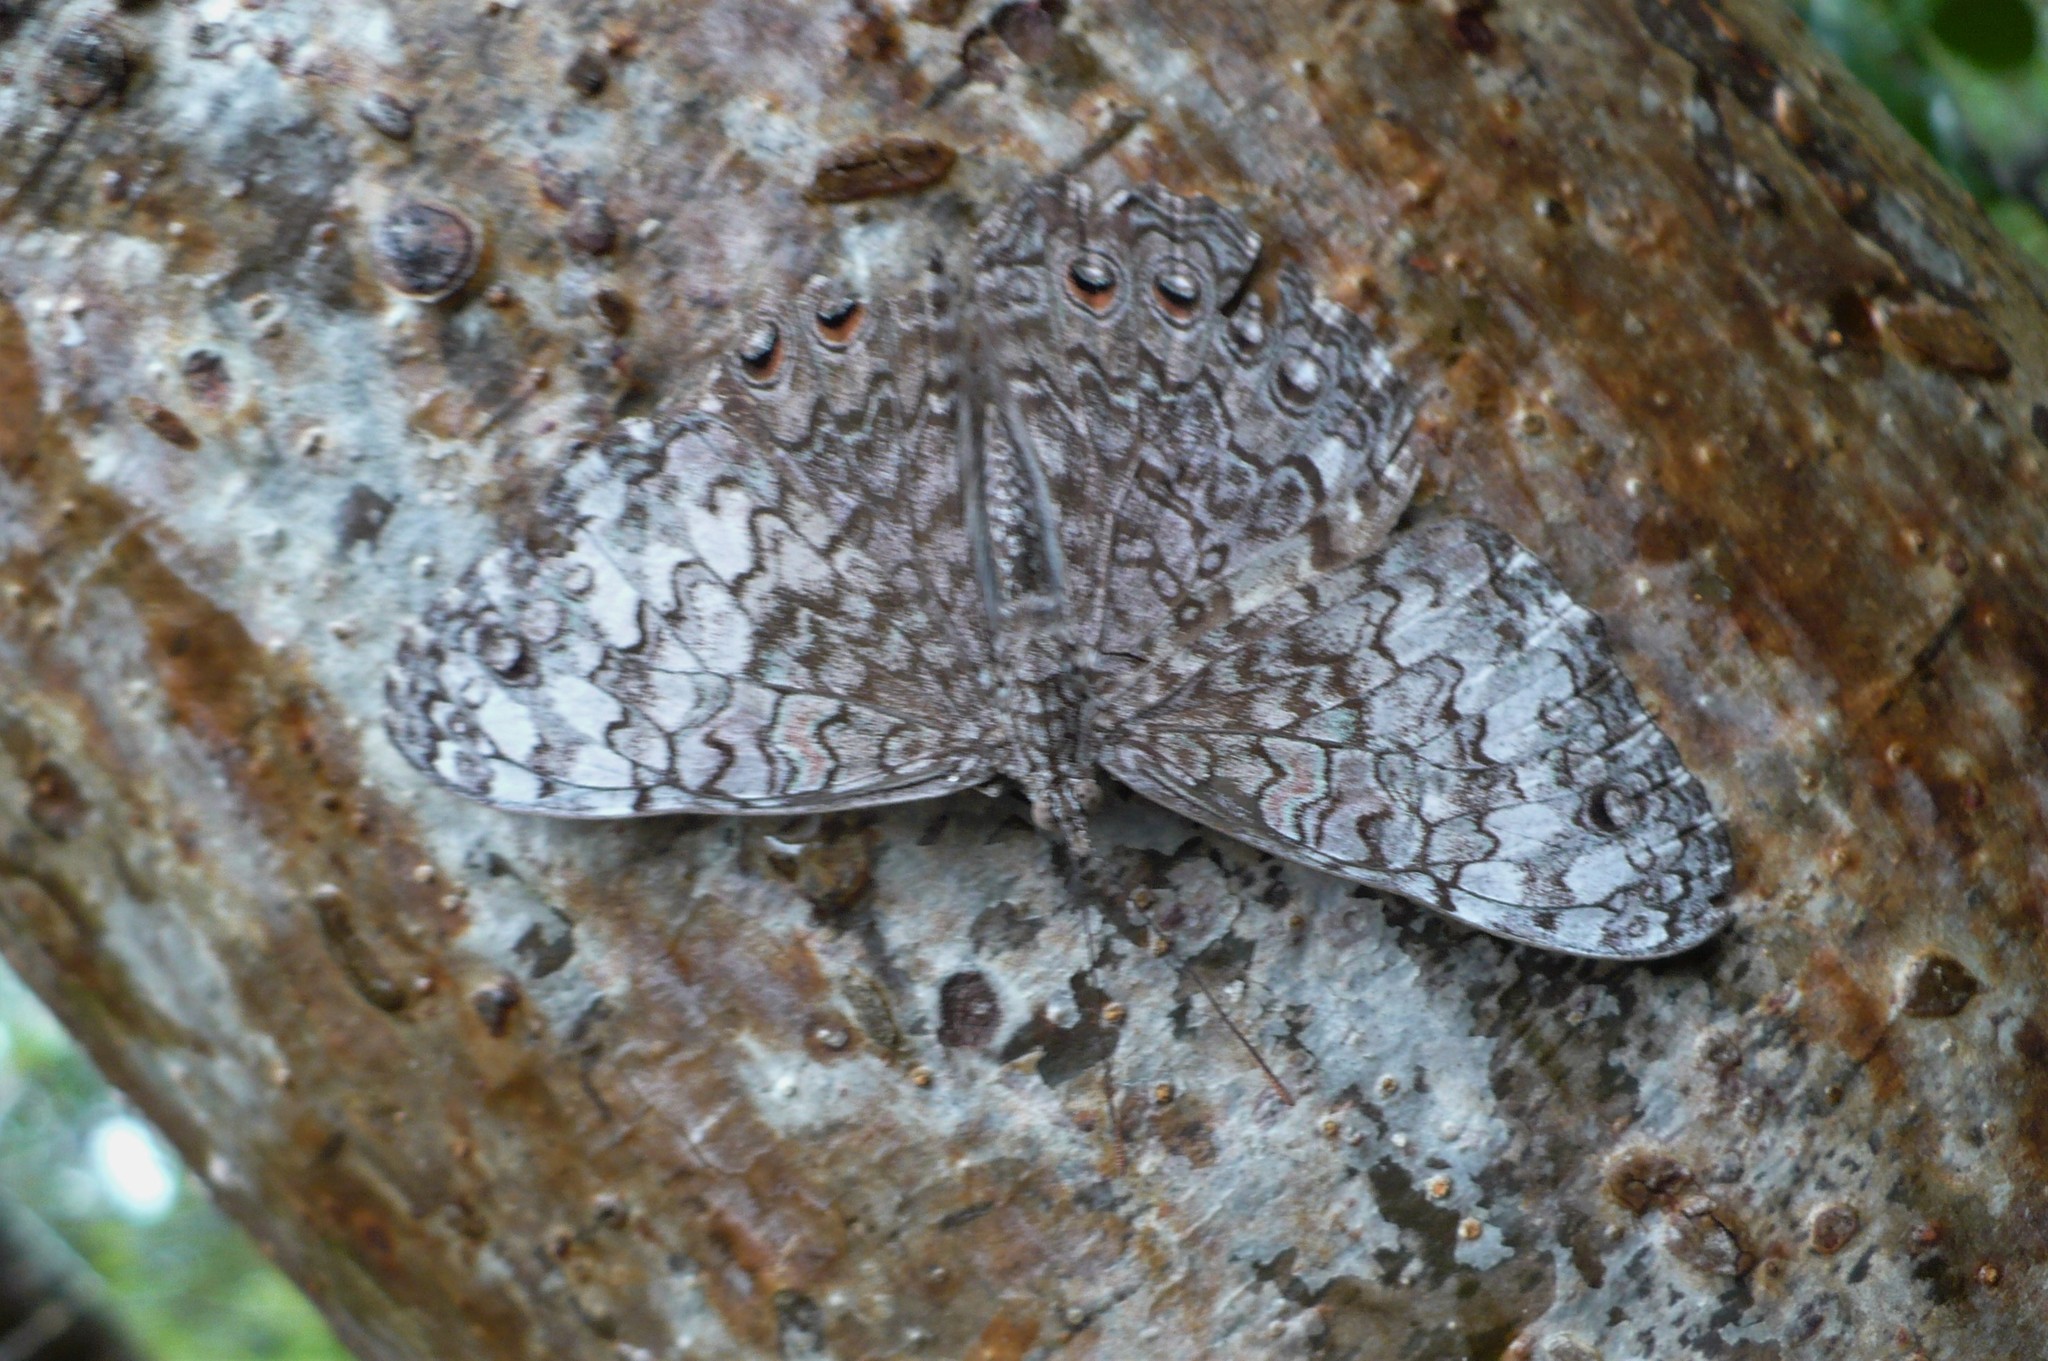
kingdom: Animalia
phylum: Arthropoda
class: Insecta
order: Lepidoptera
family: Nymphalidae
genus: Hamadryas
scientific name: Hamadryas februa
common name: Gray cracker
